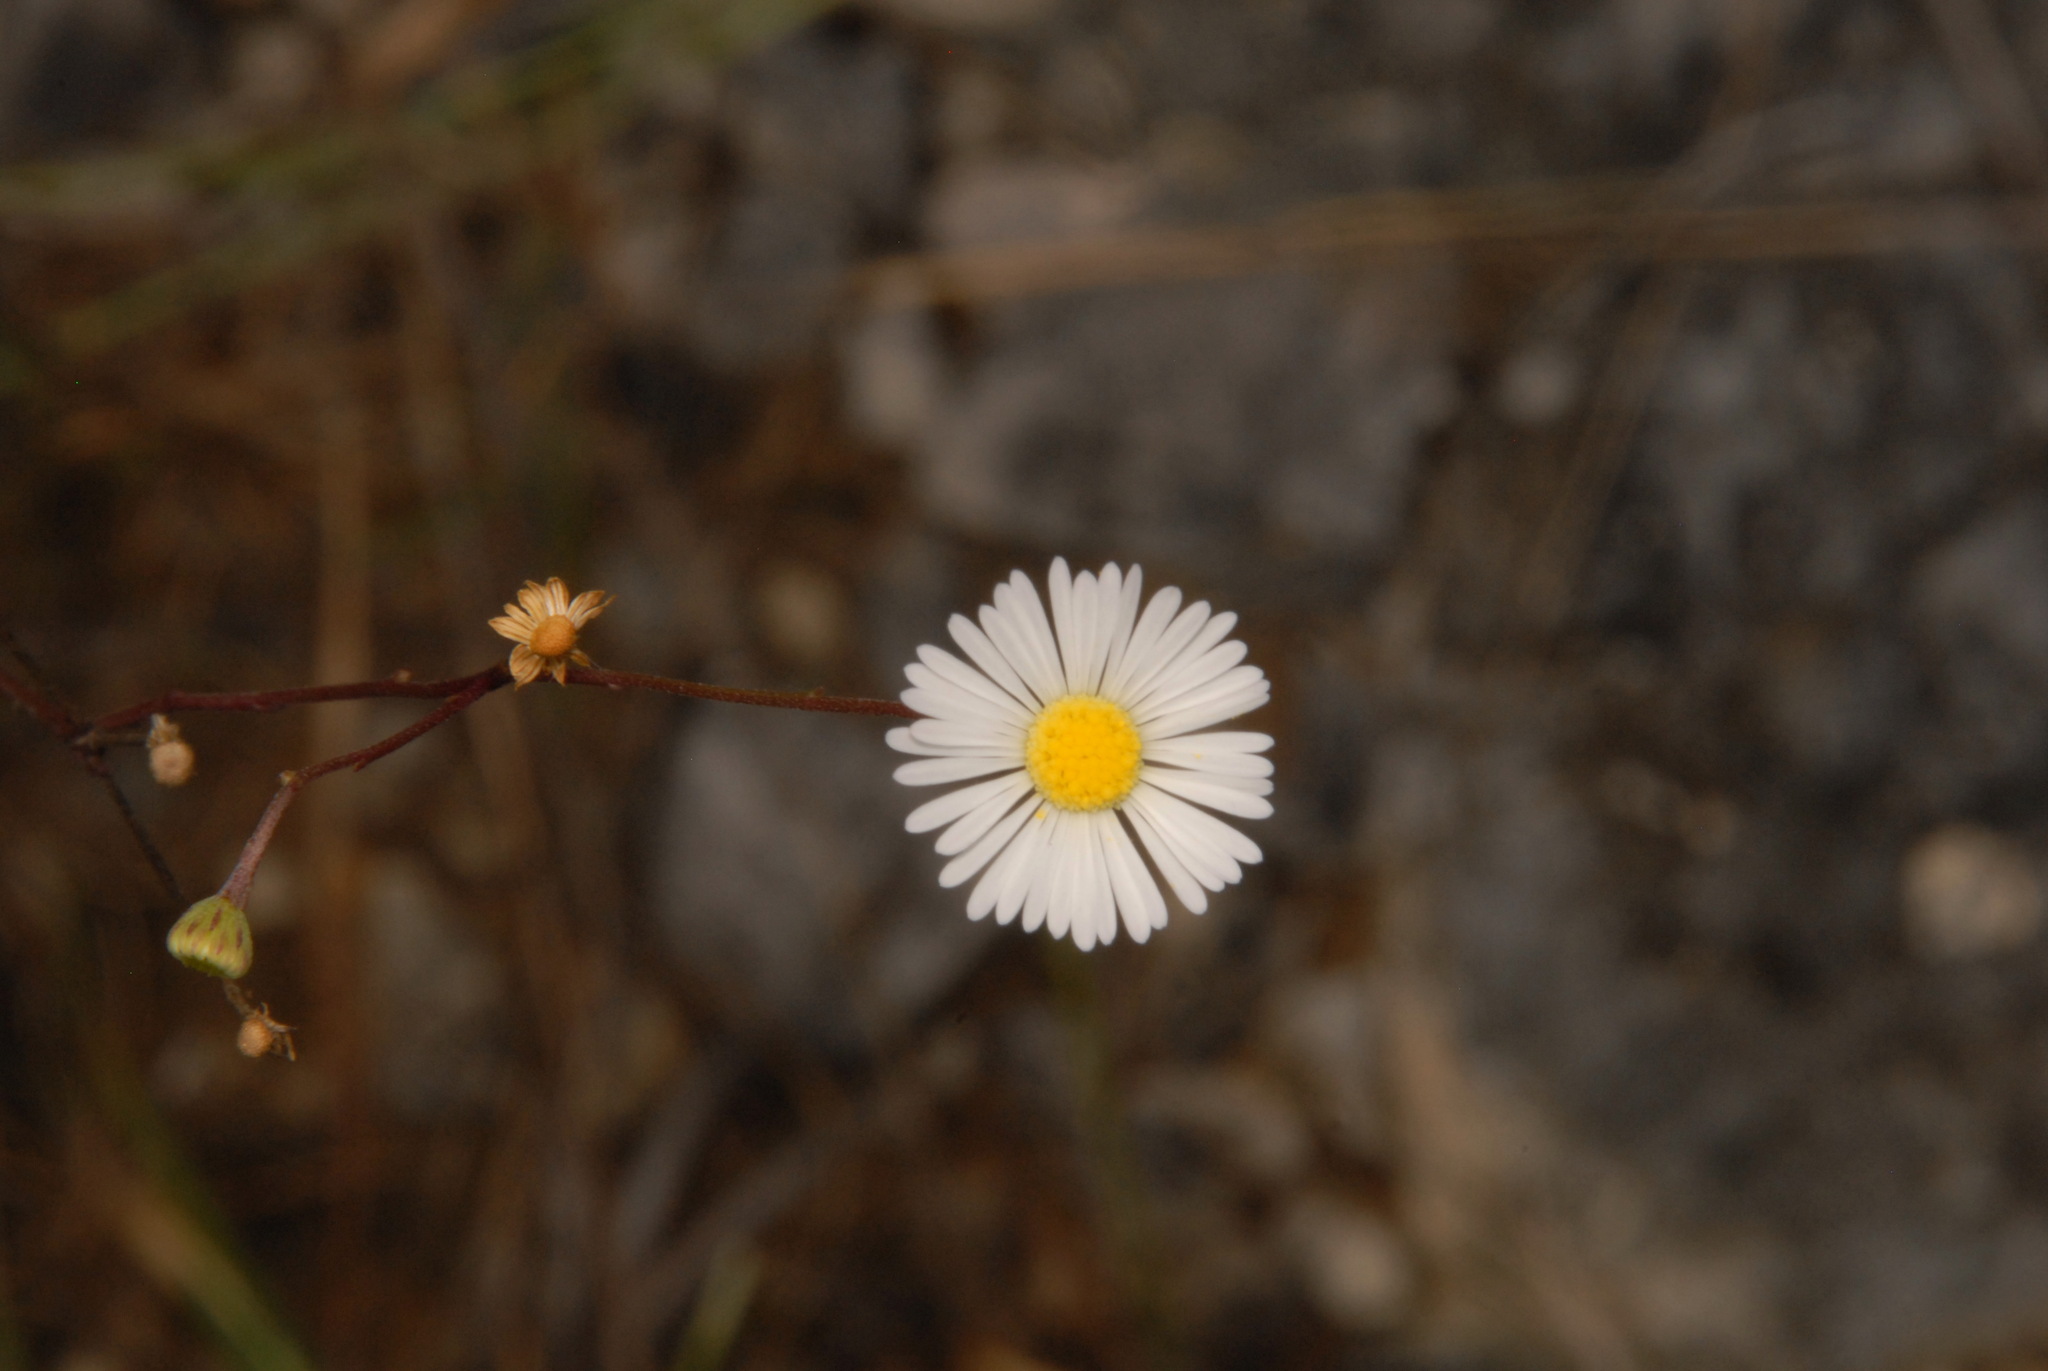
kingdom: Plantae
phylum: Tracheophyta
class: Magnoliopsida
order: Asterales
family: Asteraceae
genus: Erigeron
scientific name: Erigeron dolomiticola
